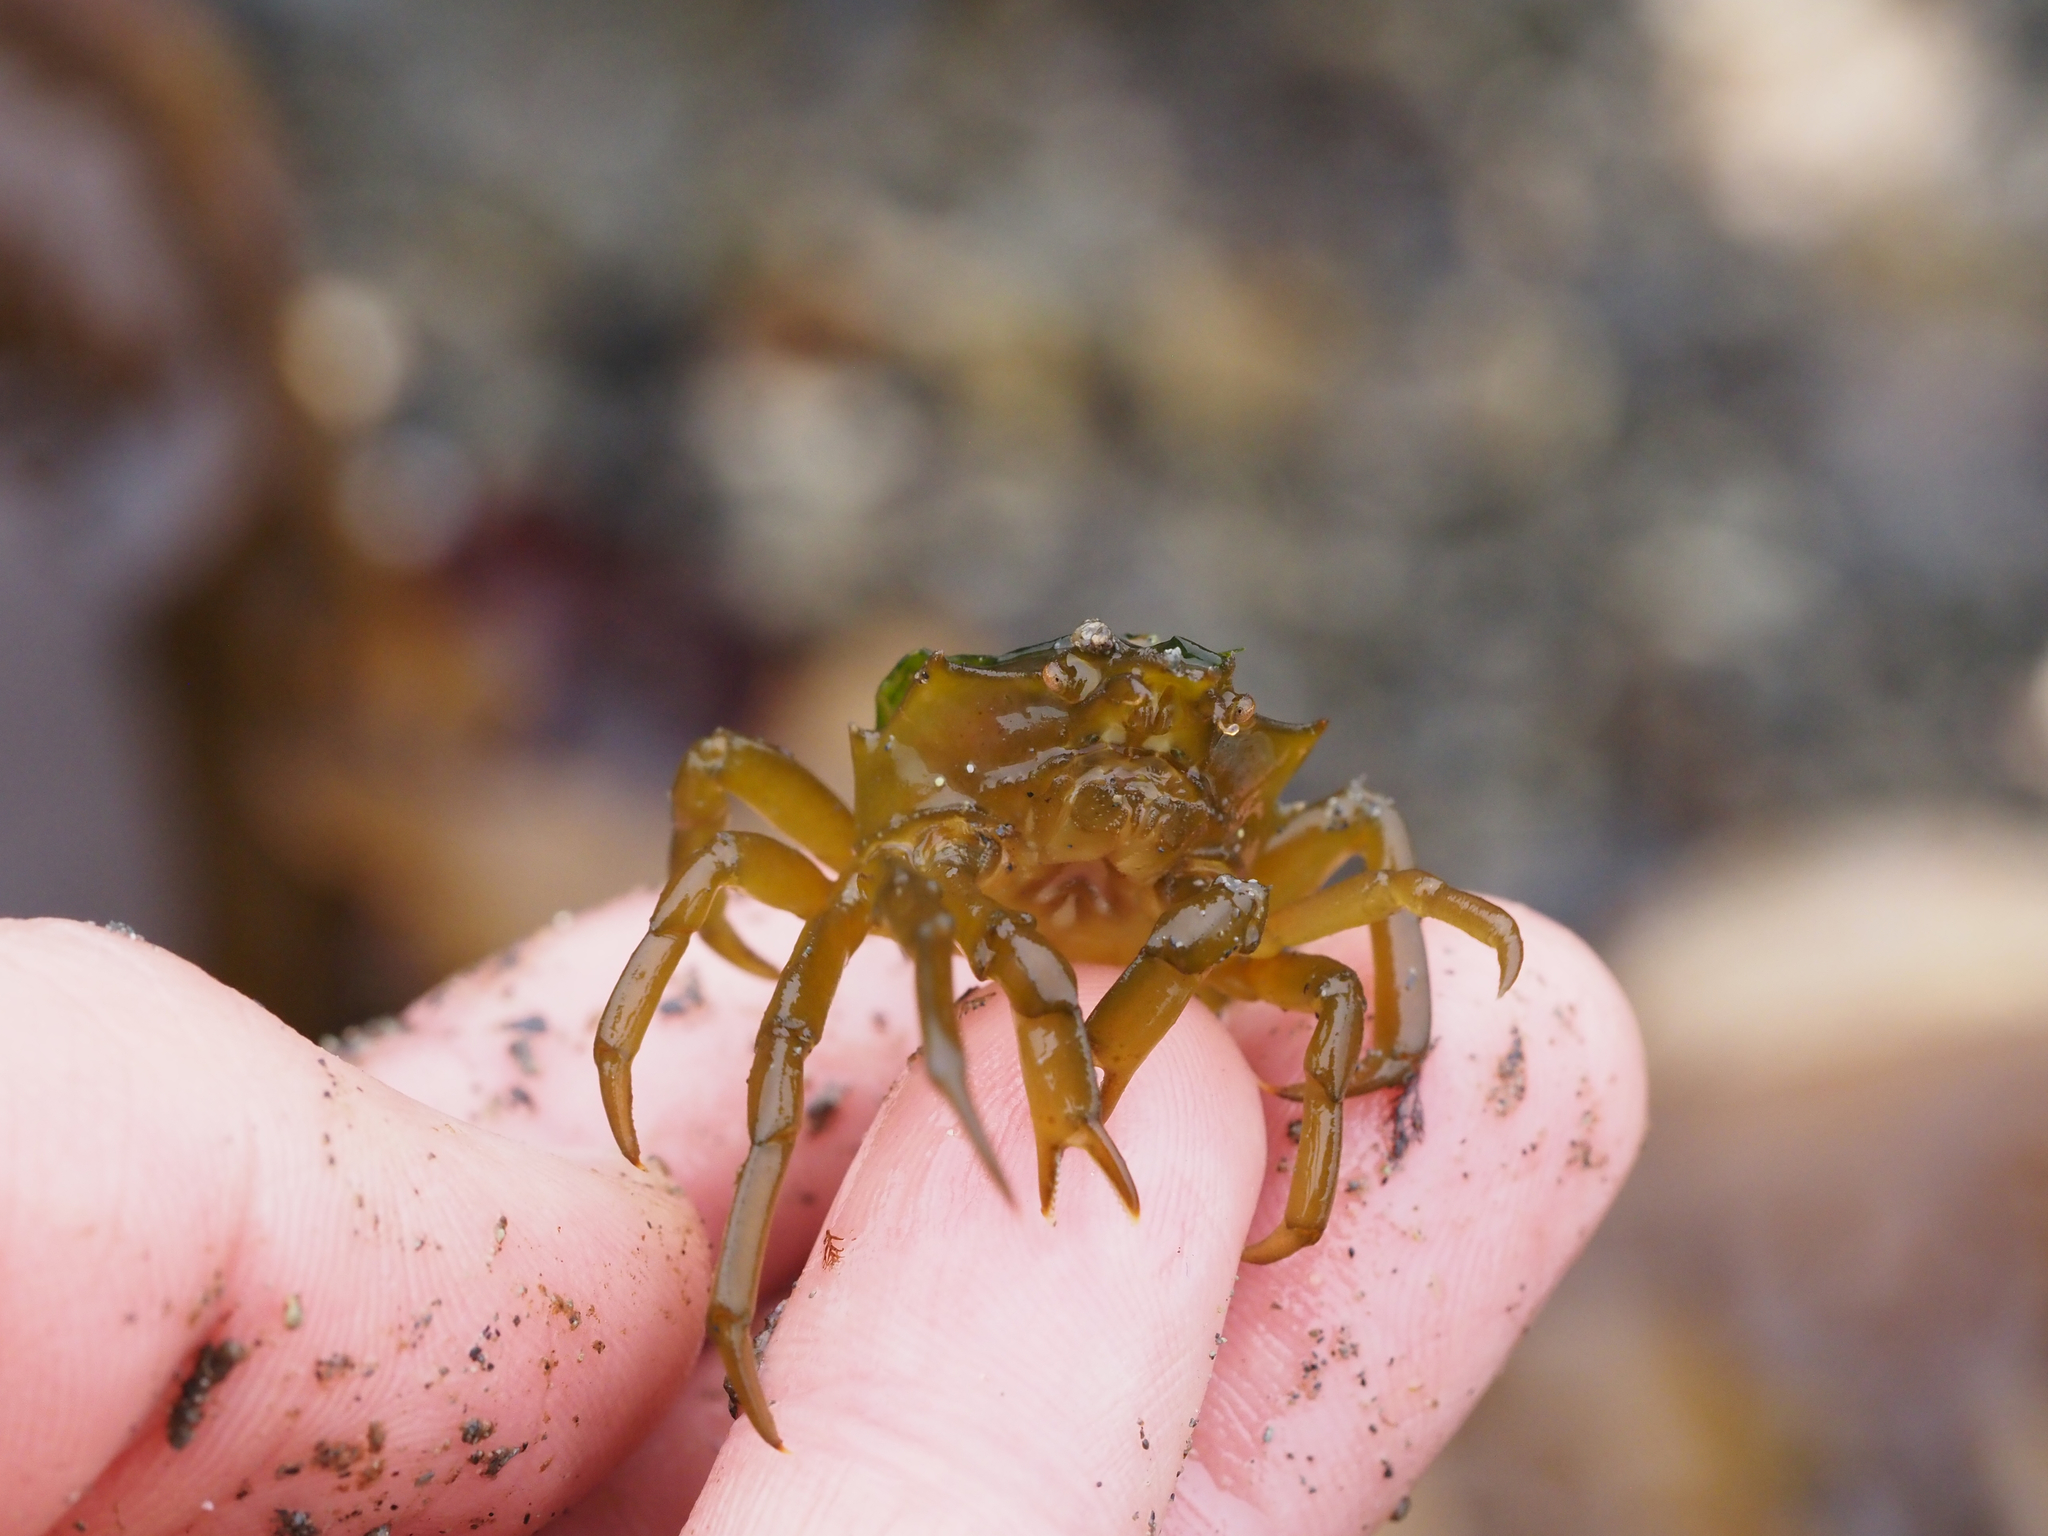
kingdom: Animalia
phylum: Arthropoda
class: Malacostraca
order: Decapoda
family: Epialtidae
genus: Pugettia
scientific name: Pugettia producta
